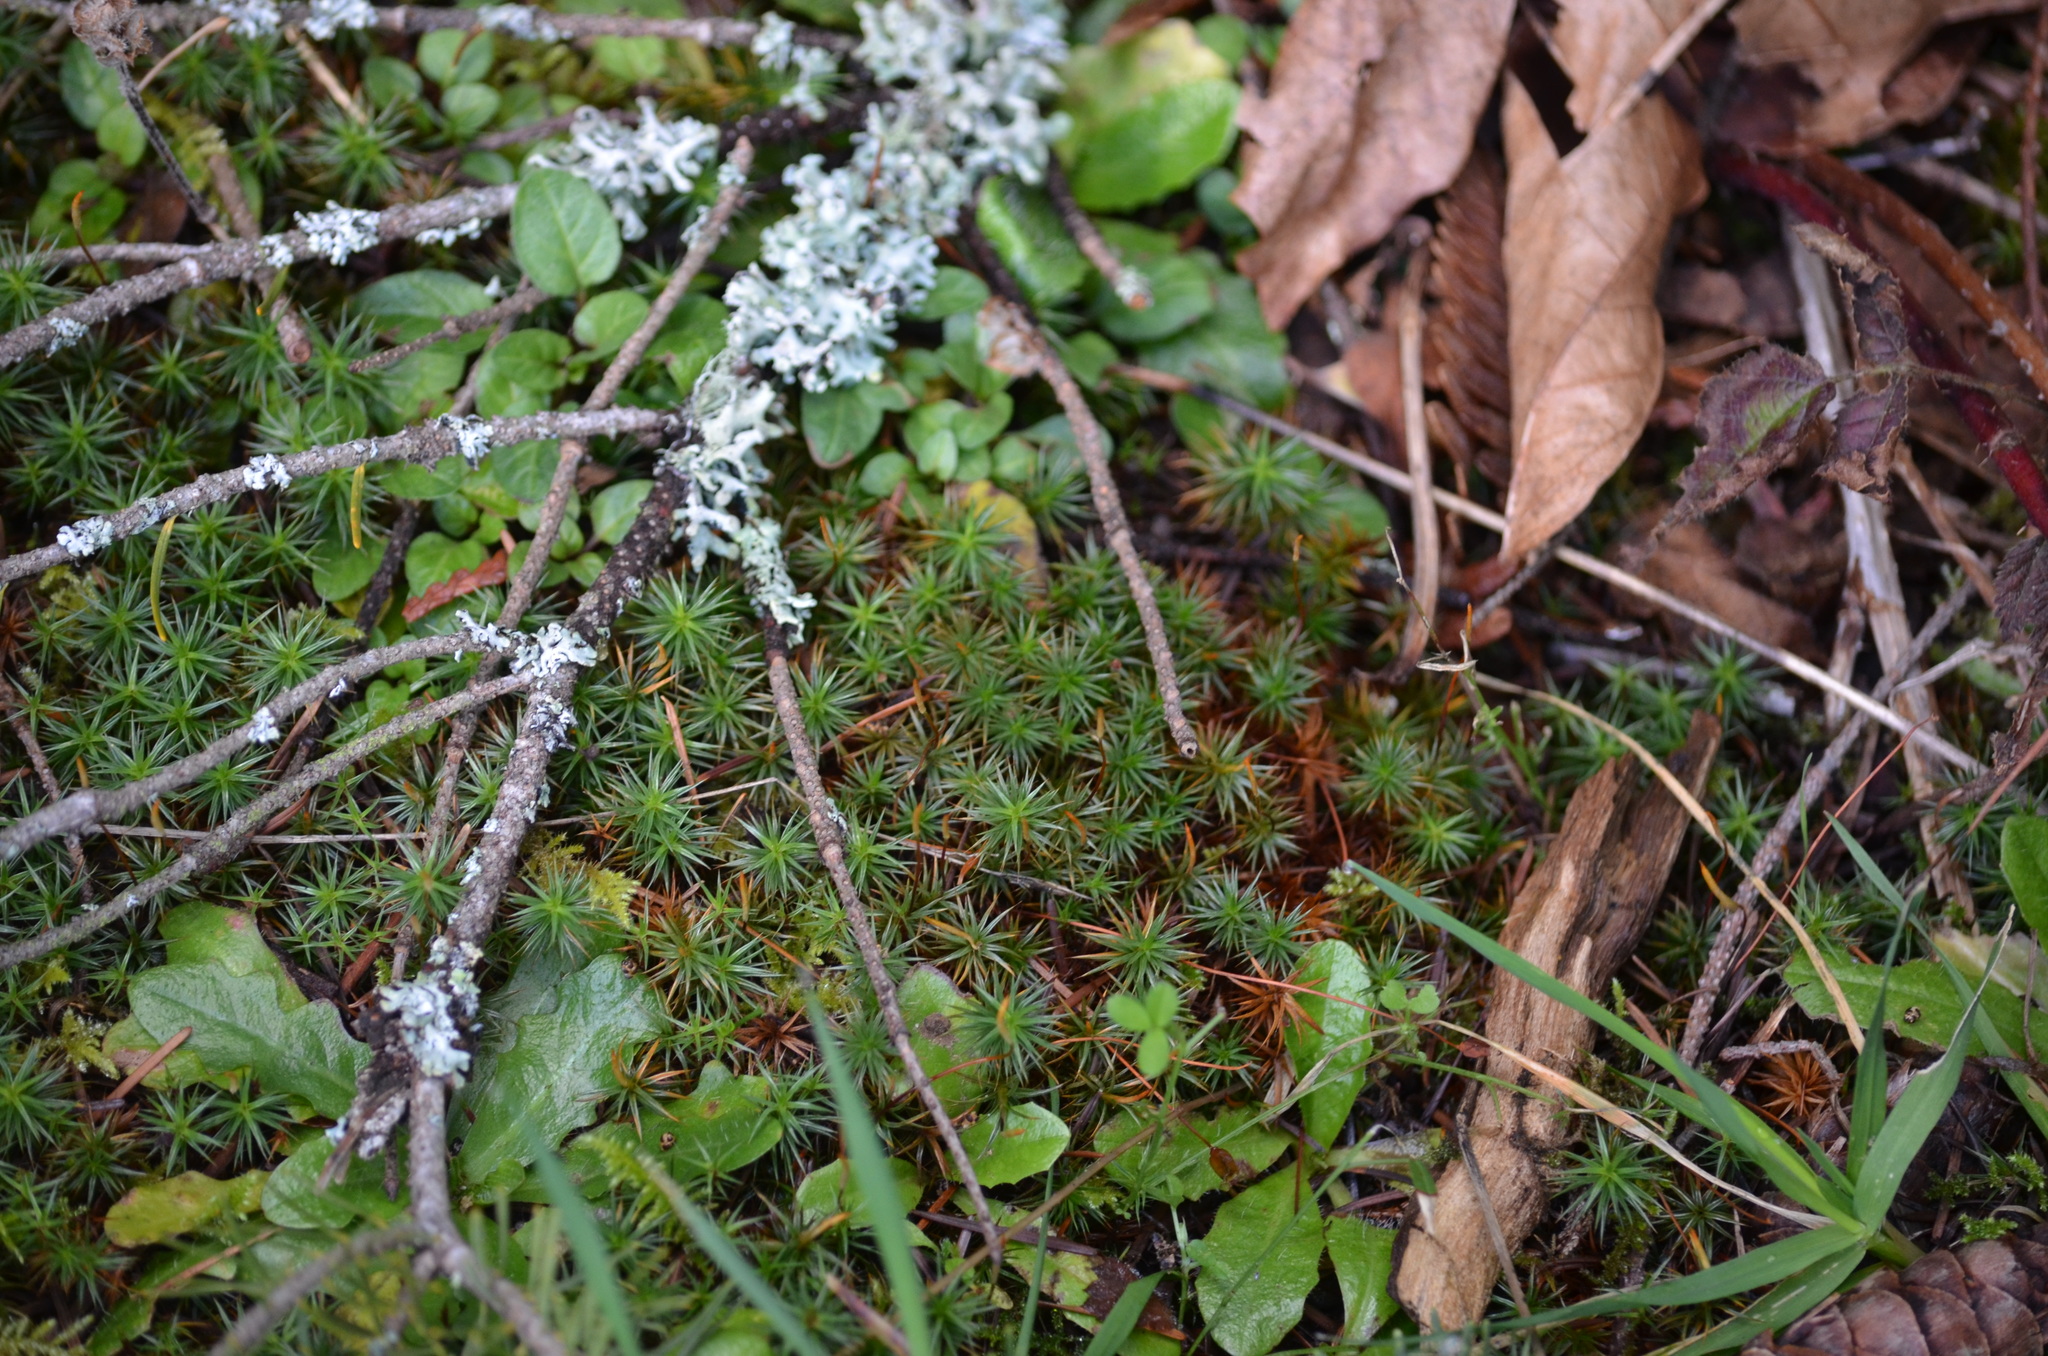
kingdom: Plantae
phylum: Bryophyta
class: Polytrichopsida
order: Polytrichales
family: Polytrichaceae
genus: Polytrichum
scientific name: Polytrichum juniperinum
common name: Juniper haircap moss
